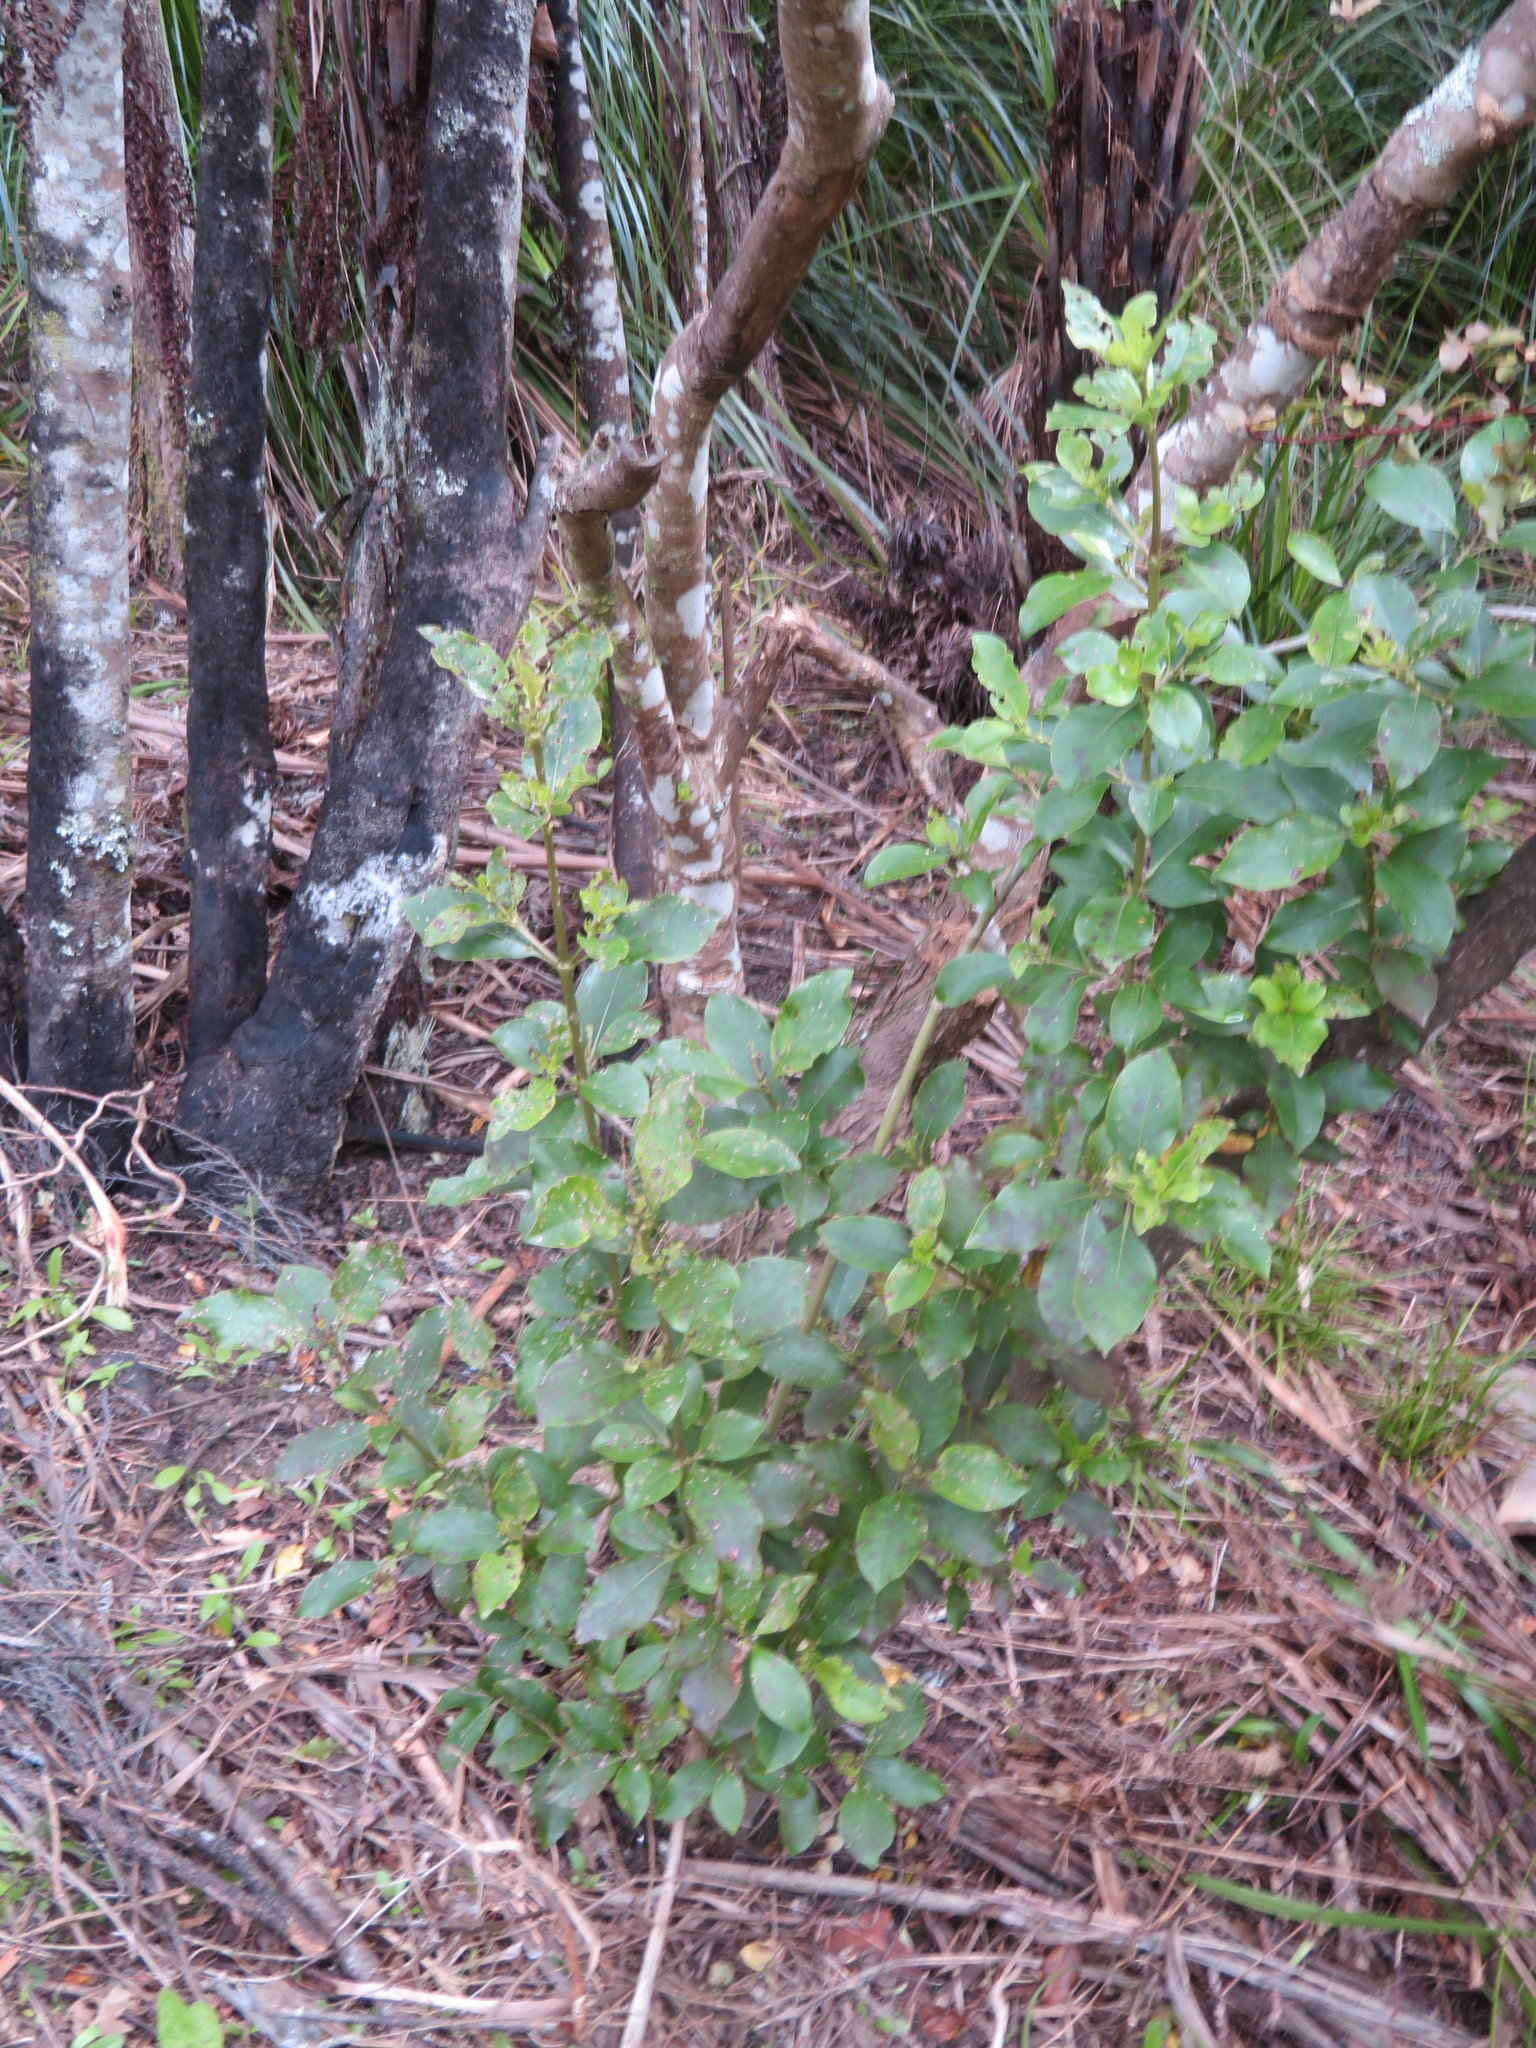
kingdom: Plantae
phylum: Tracheophyta
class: Magnoliopsida
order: Gentianales
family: Rubiaceae
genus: Coprosma
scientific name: Coprosma robusta
